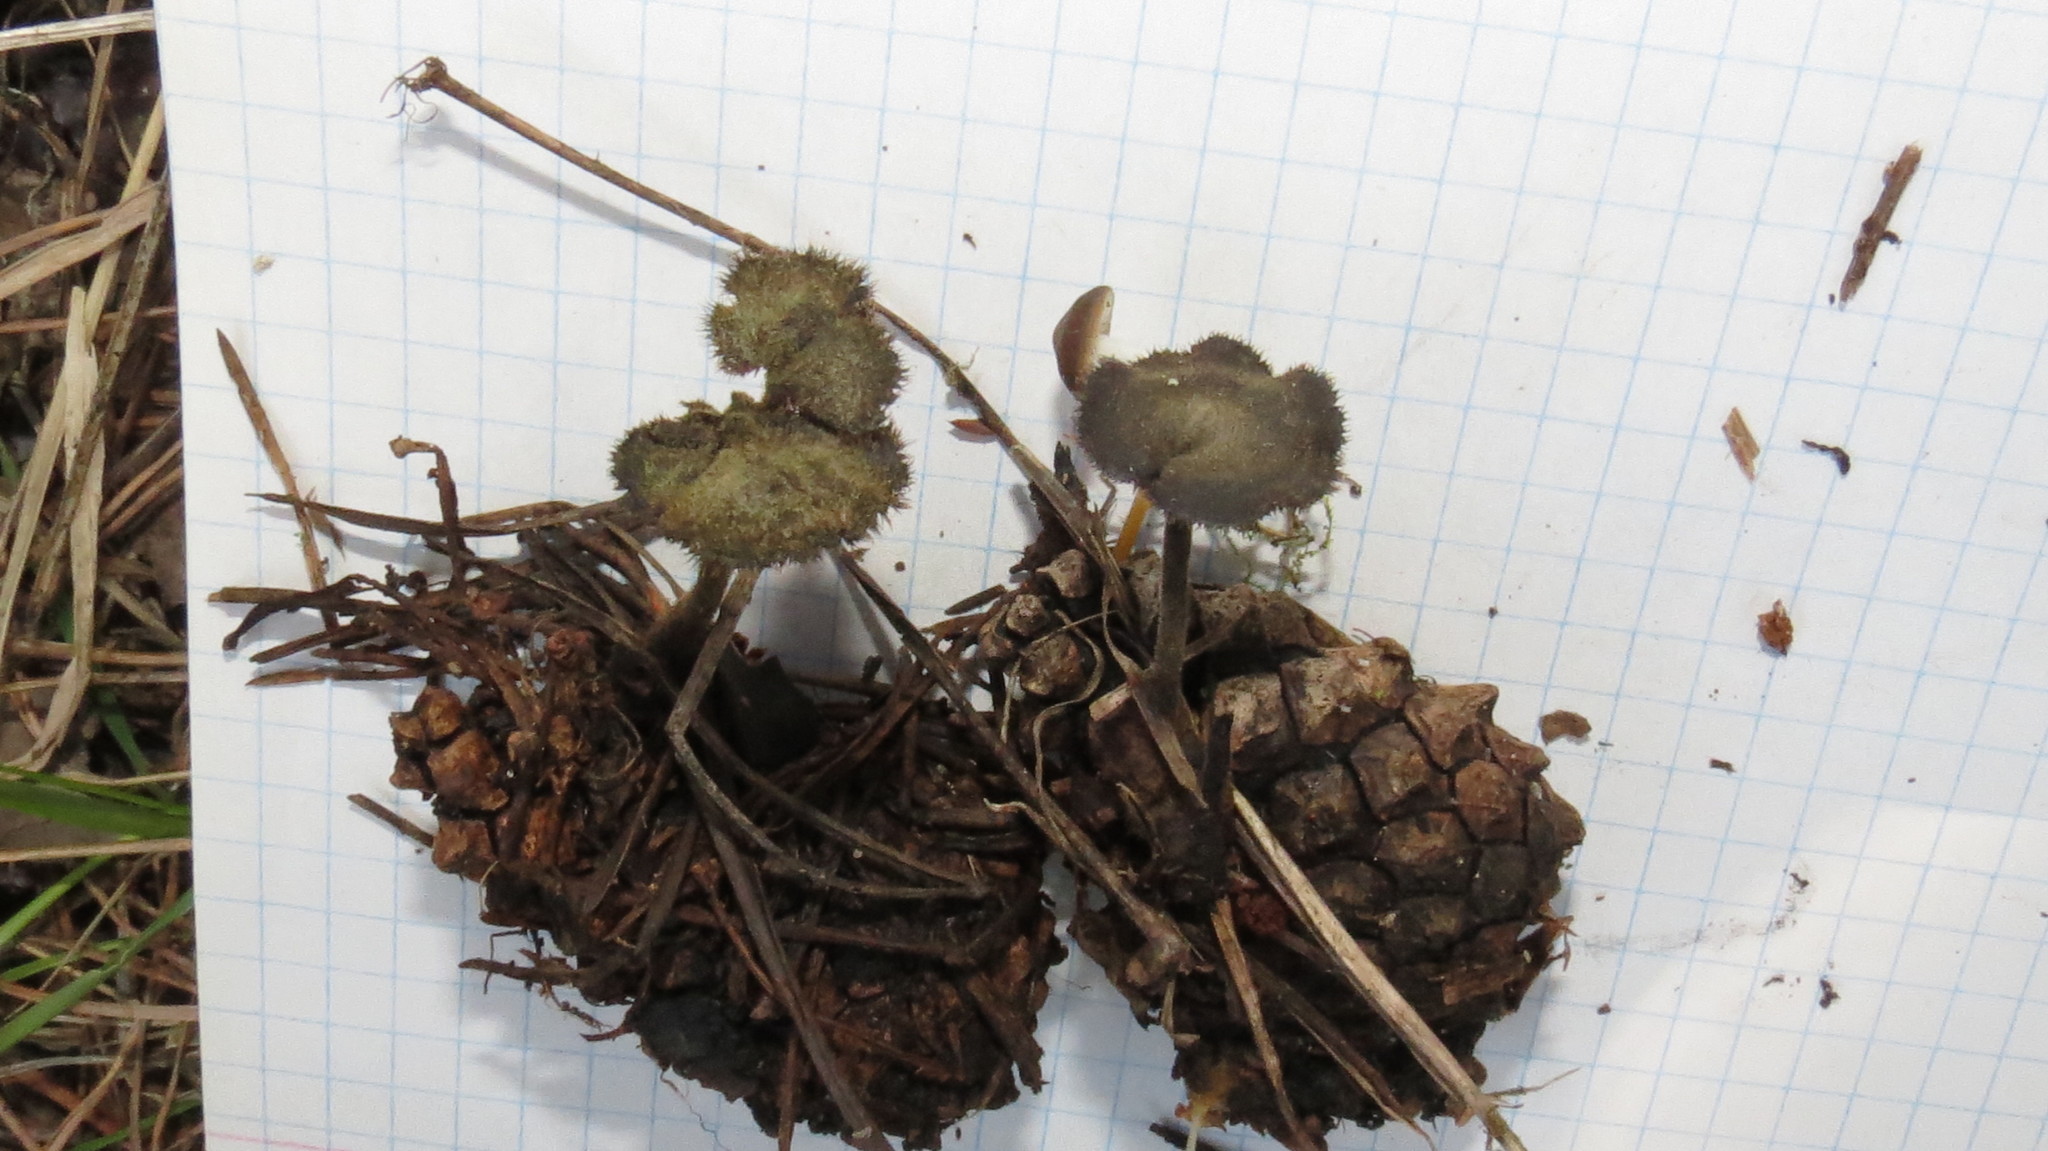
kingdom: Fungi
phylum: Basidiomycota
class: Agaricomycetes
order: Russulales
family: Auriscalpiaceae
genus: Auriscalpium
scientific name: Auriscalpium vulgare
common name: Earpick fungus
